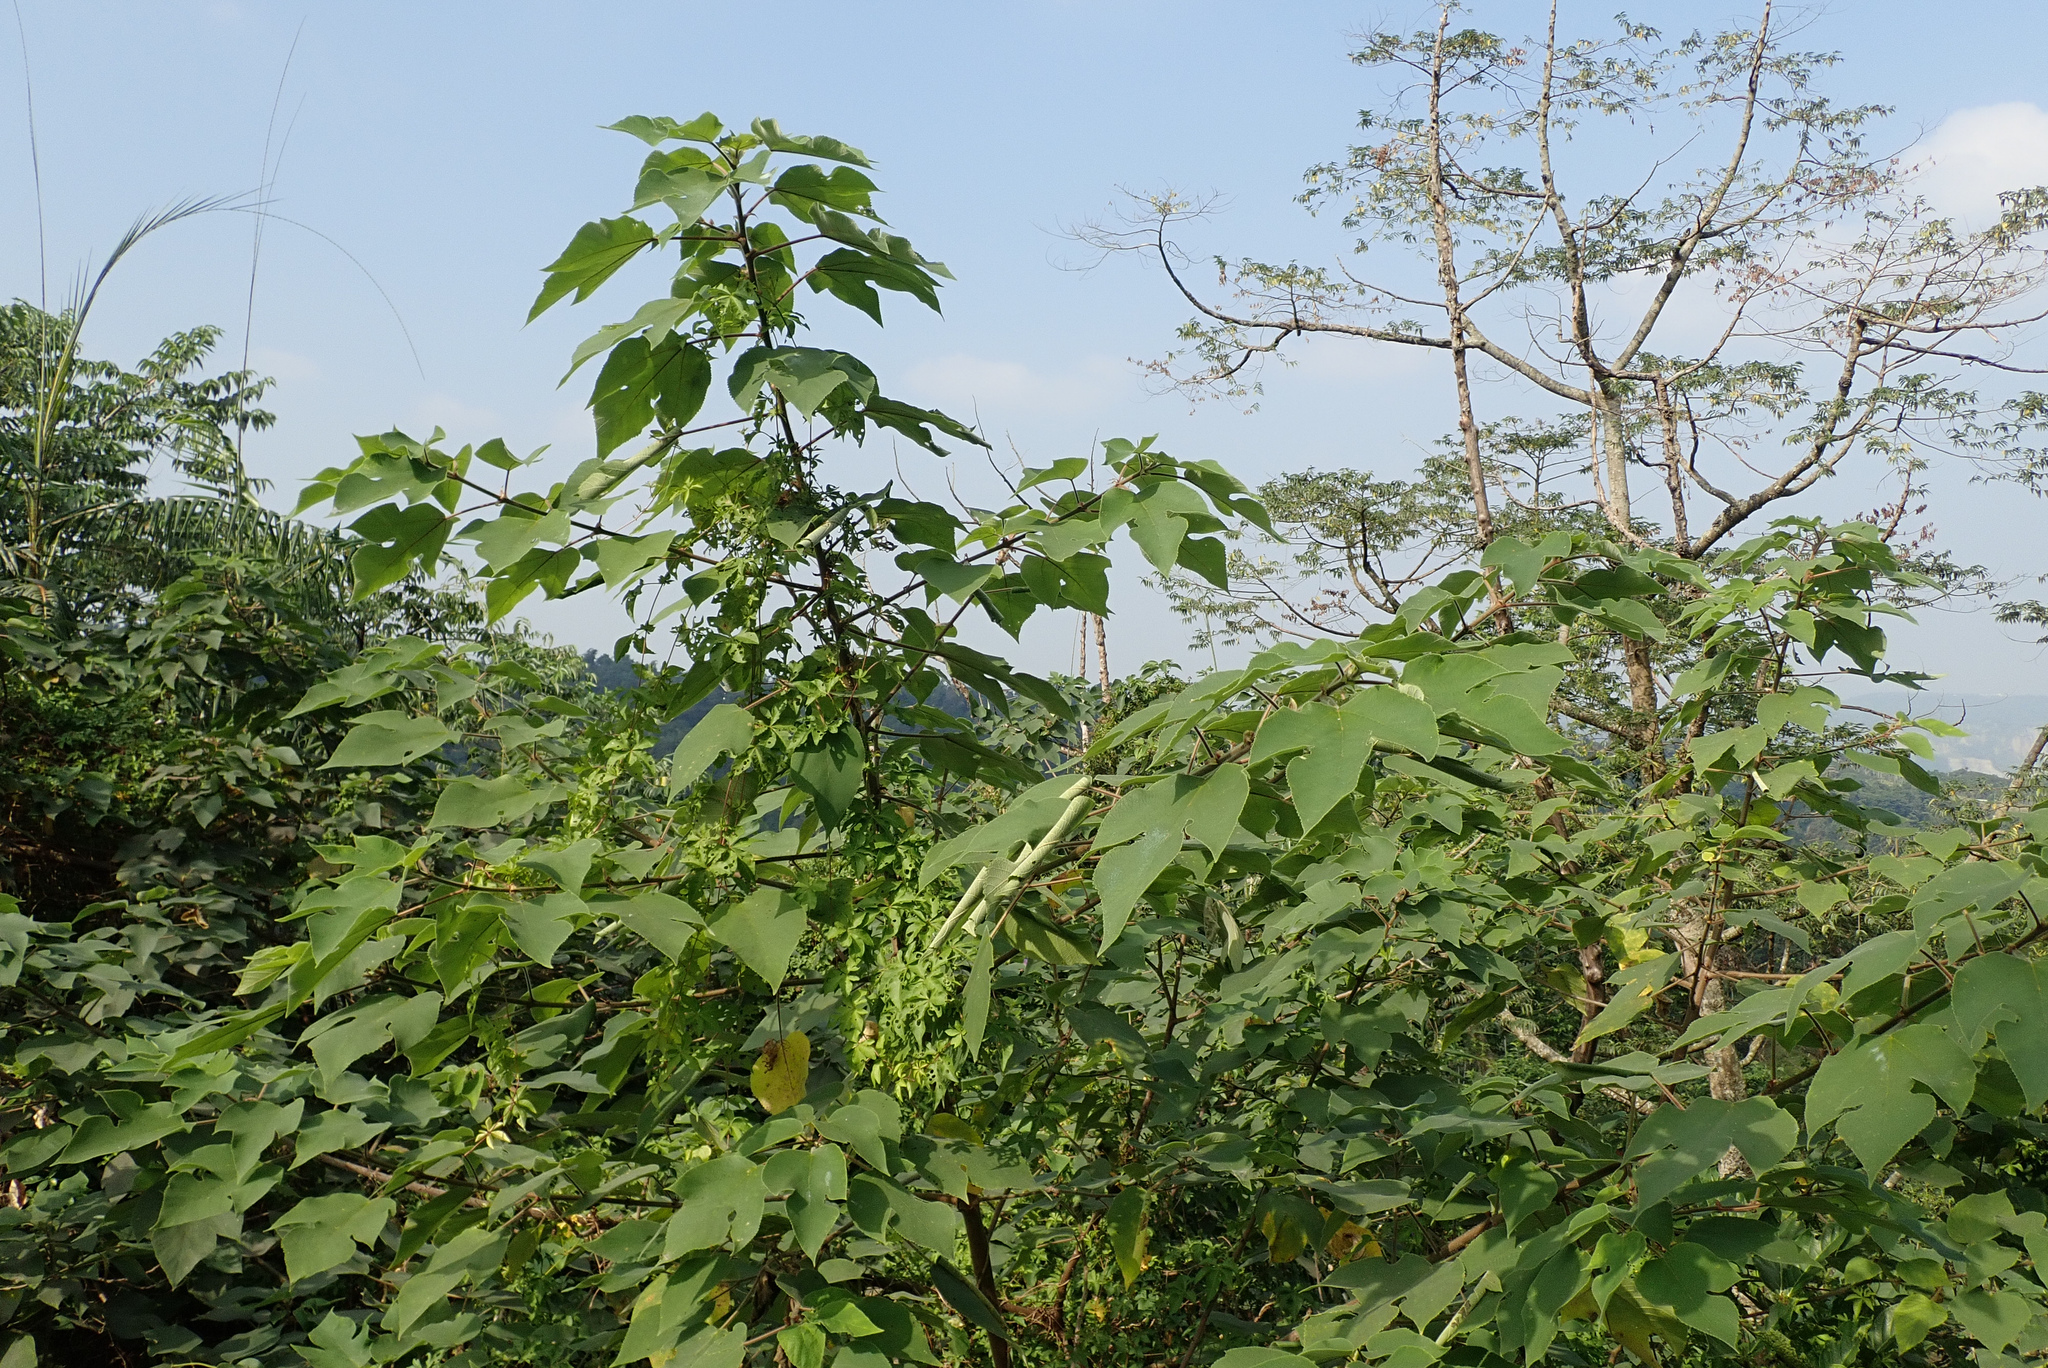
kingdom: Plantae
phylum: Tracheophyta
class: Magnoliopsida
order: Rosales
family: Moraceae
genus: Broussonetia
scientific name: Broussonetia papyrifera
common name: Paper mulberry
